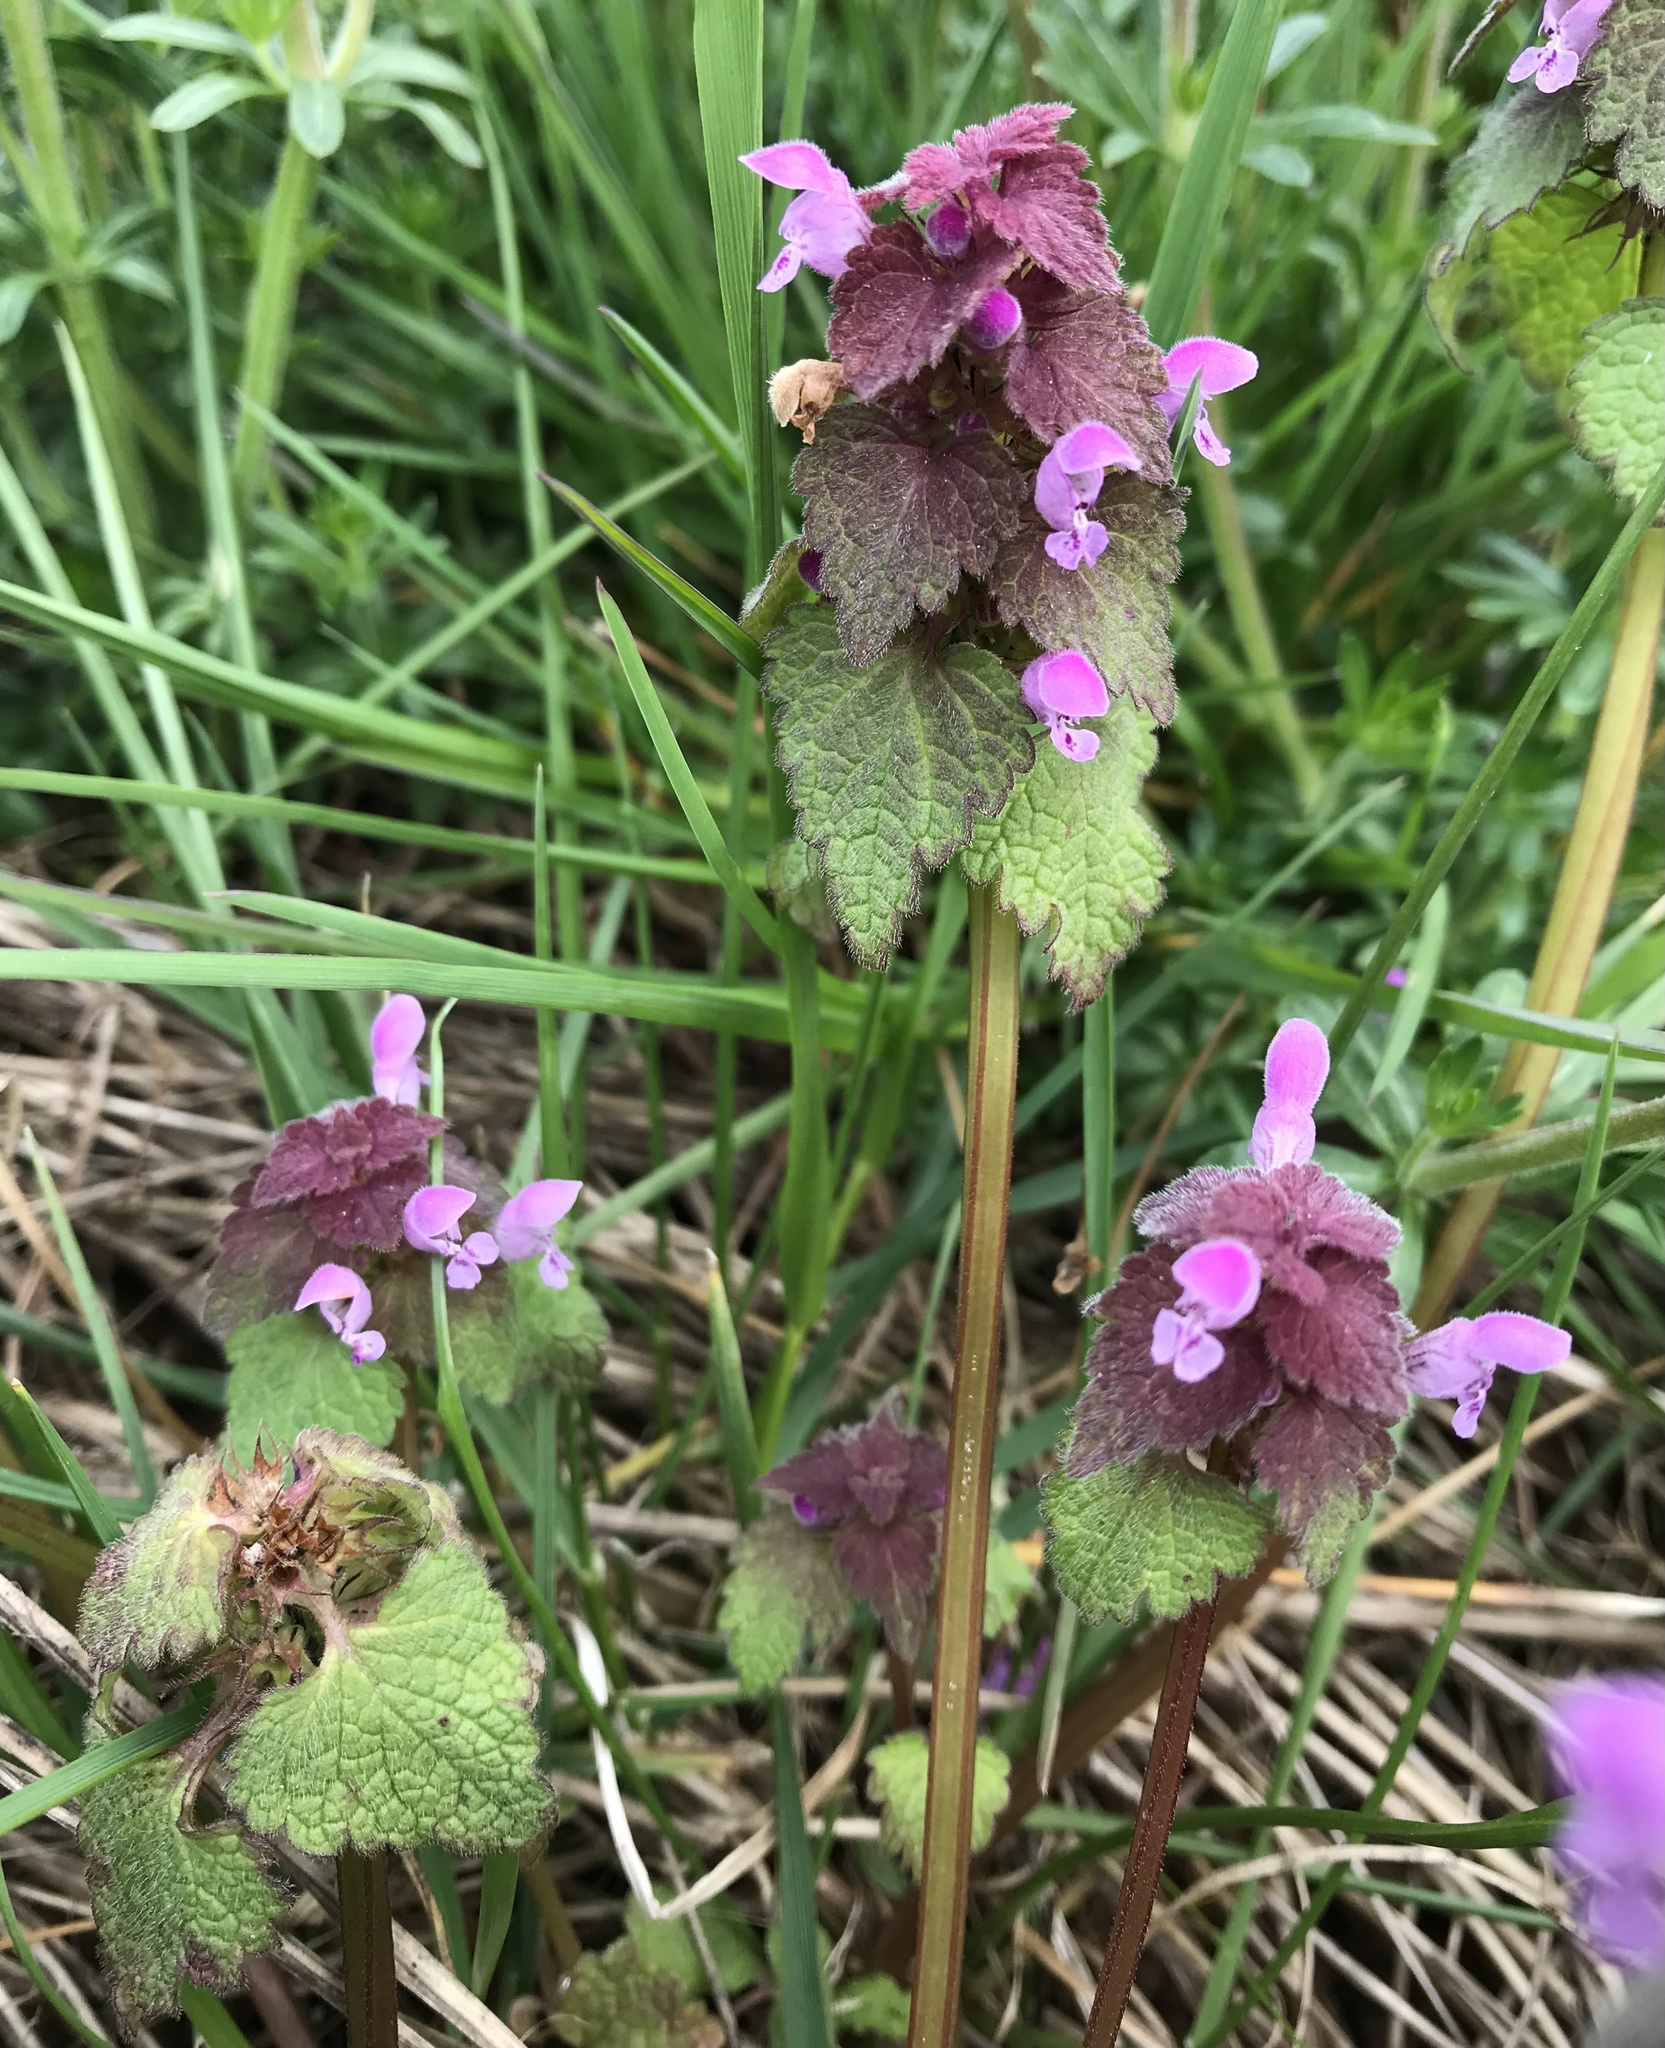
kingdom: Plantae
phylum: Tracheophyta
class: Magnoliopsida
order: Lamiales
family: Lamiaceae
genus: Lamium
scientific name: Lamium purpureum
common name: Red dead-nettle
